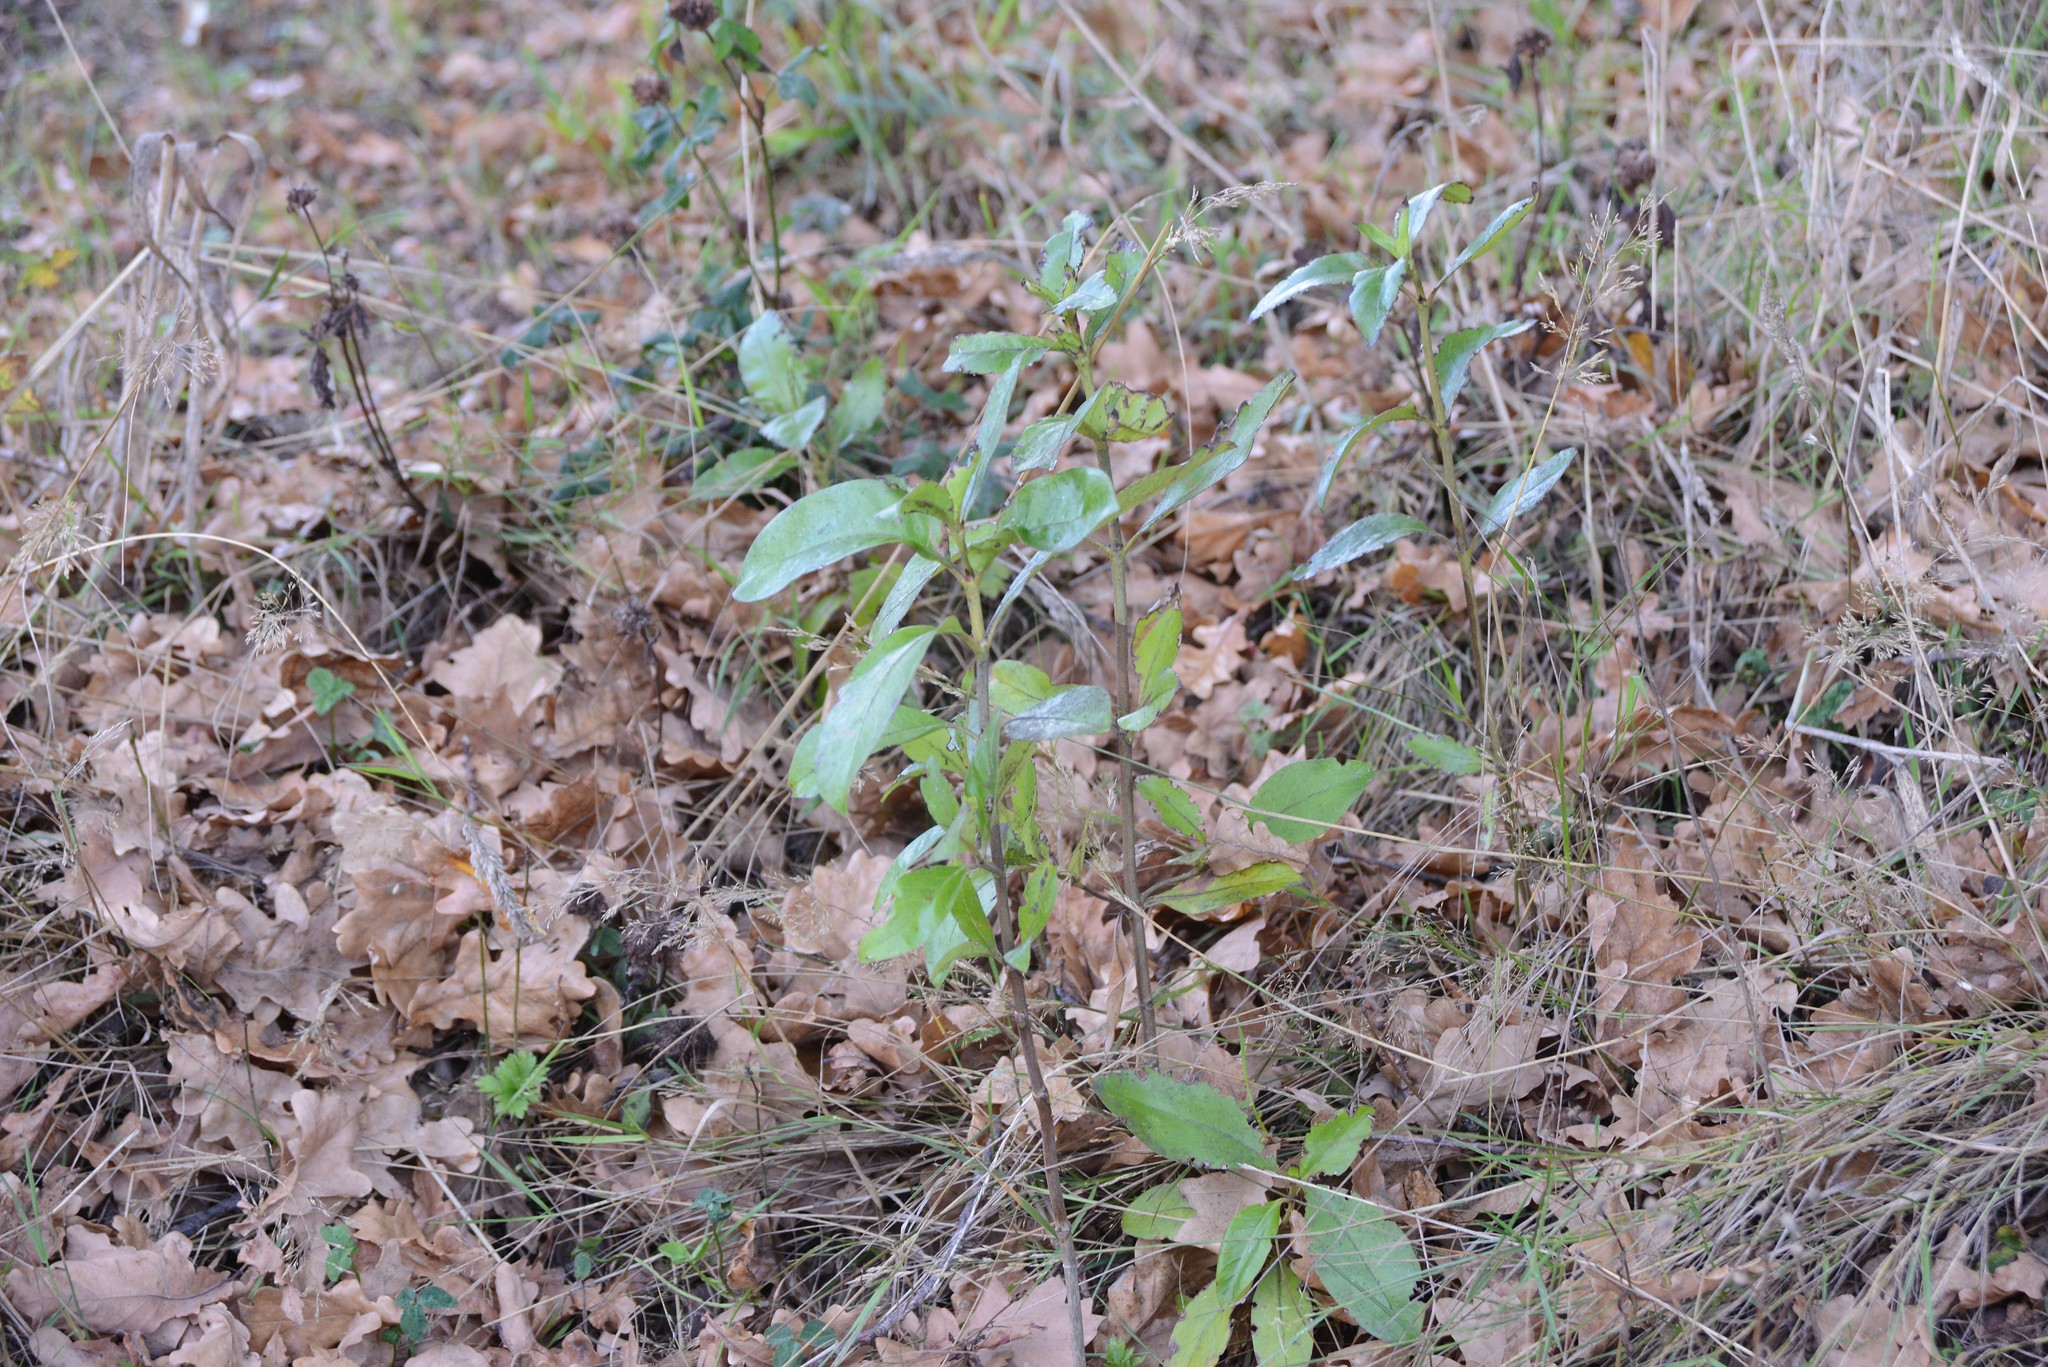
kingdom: Plantae
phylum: Tracheophyta
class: Magnoliopsida
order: Gentianales
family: Rubiaceae
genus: Coprosma
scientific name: Coprosma robusta
